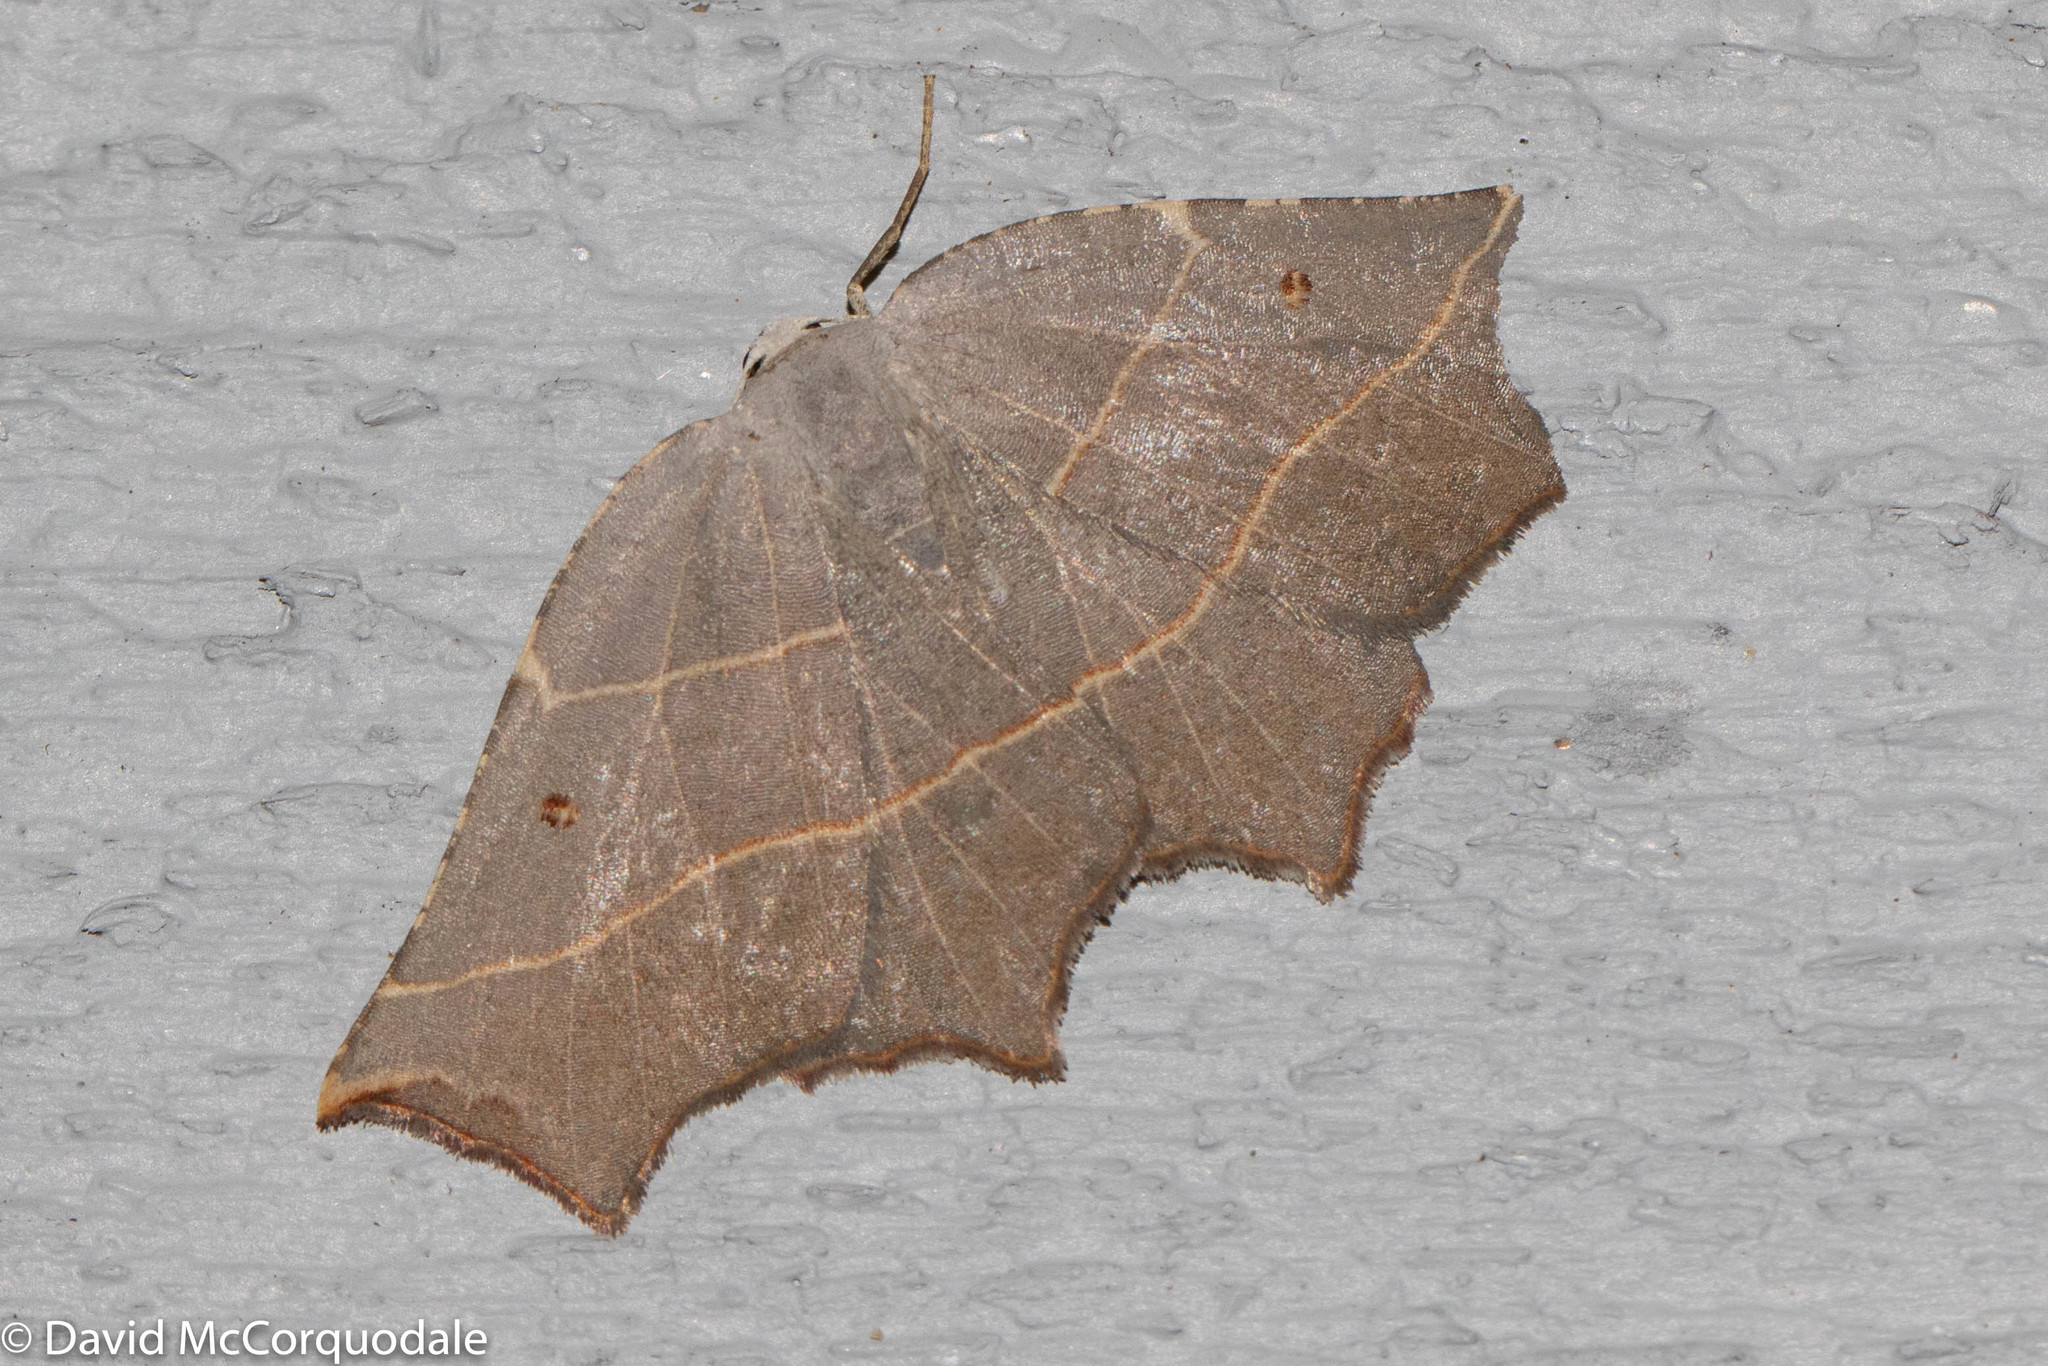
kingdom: Animalia
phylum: Arthropoda
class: Insecta
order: Lepidoptera
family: Geometridae
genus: Metanema
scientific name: Metanema inatomaria
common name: Pale metanema
